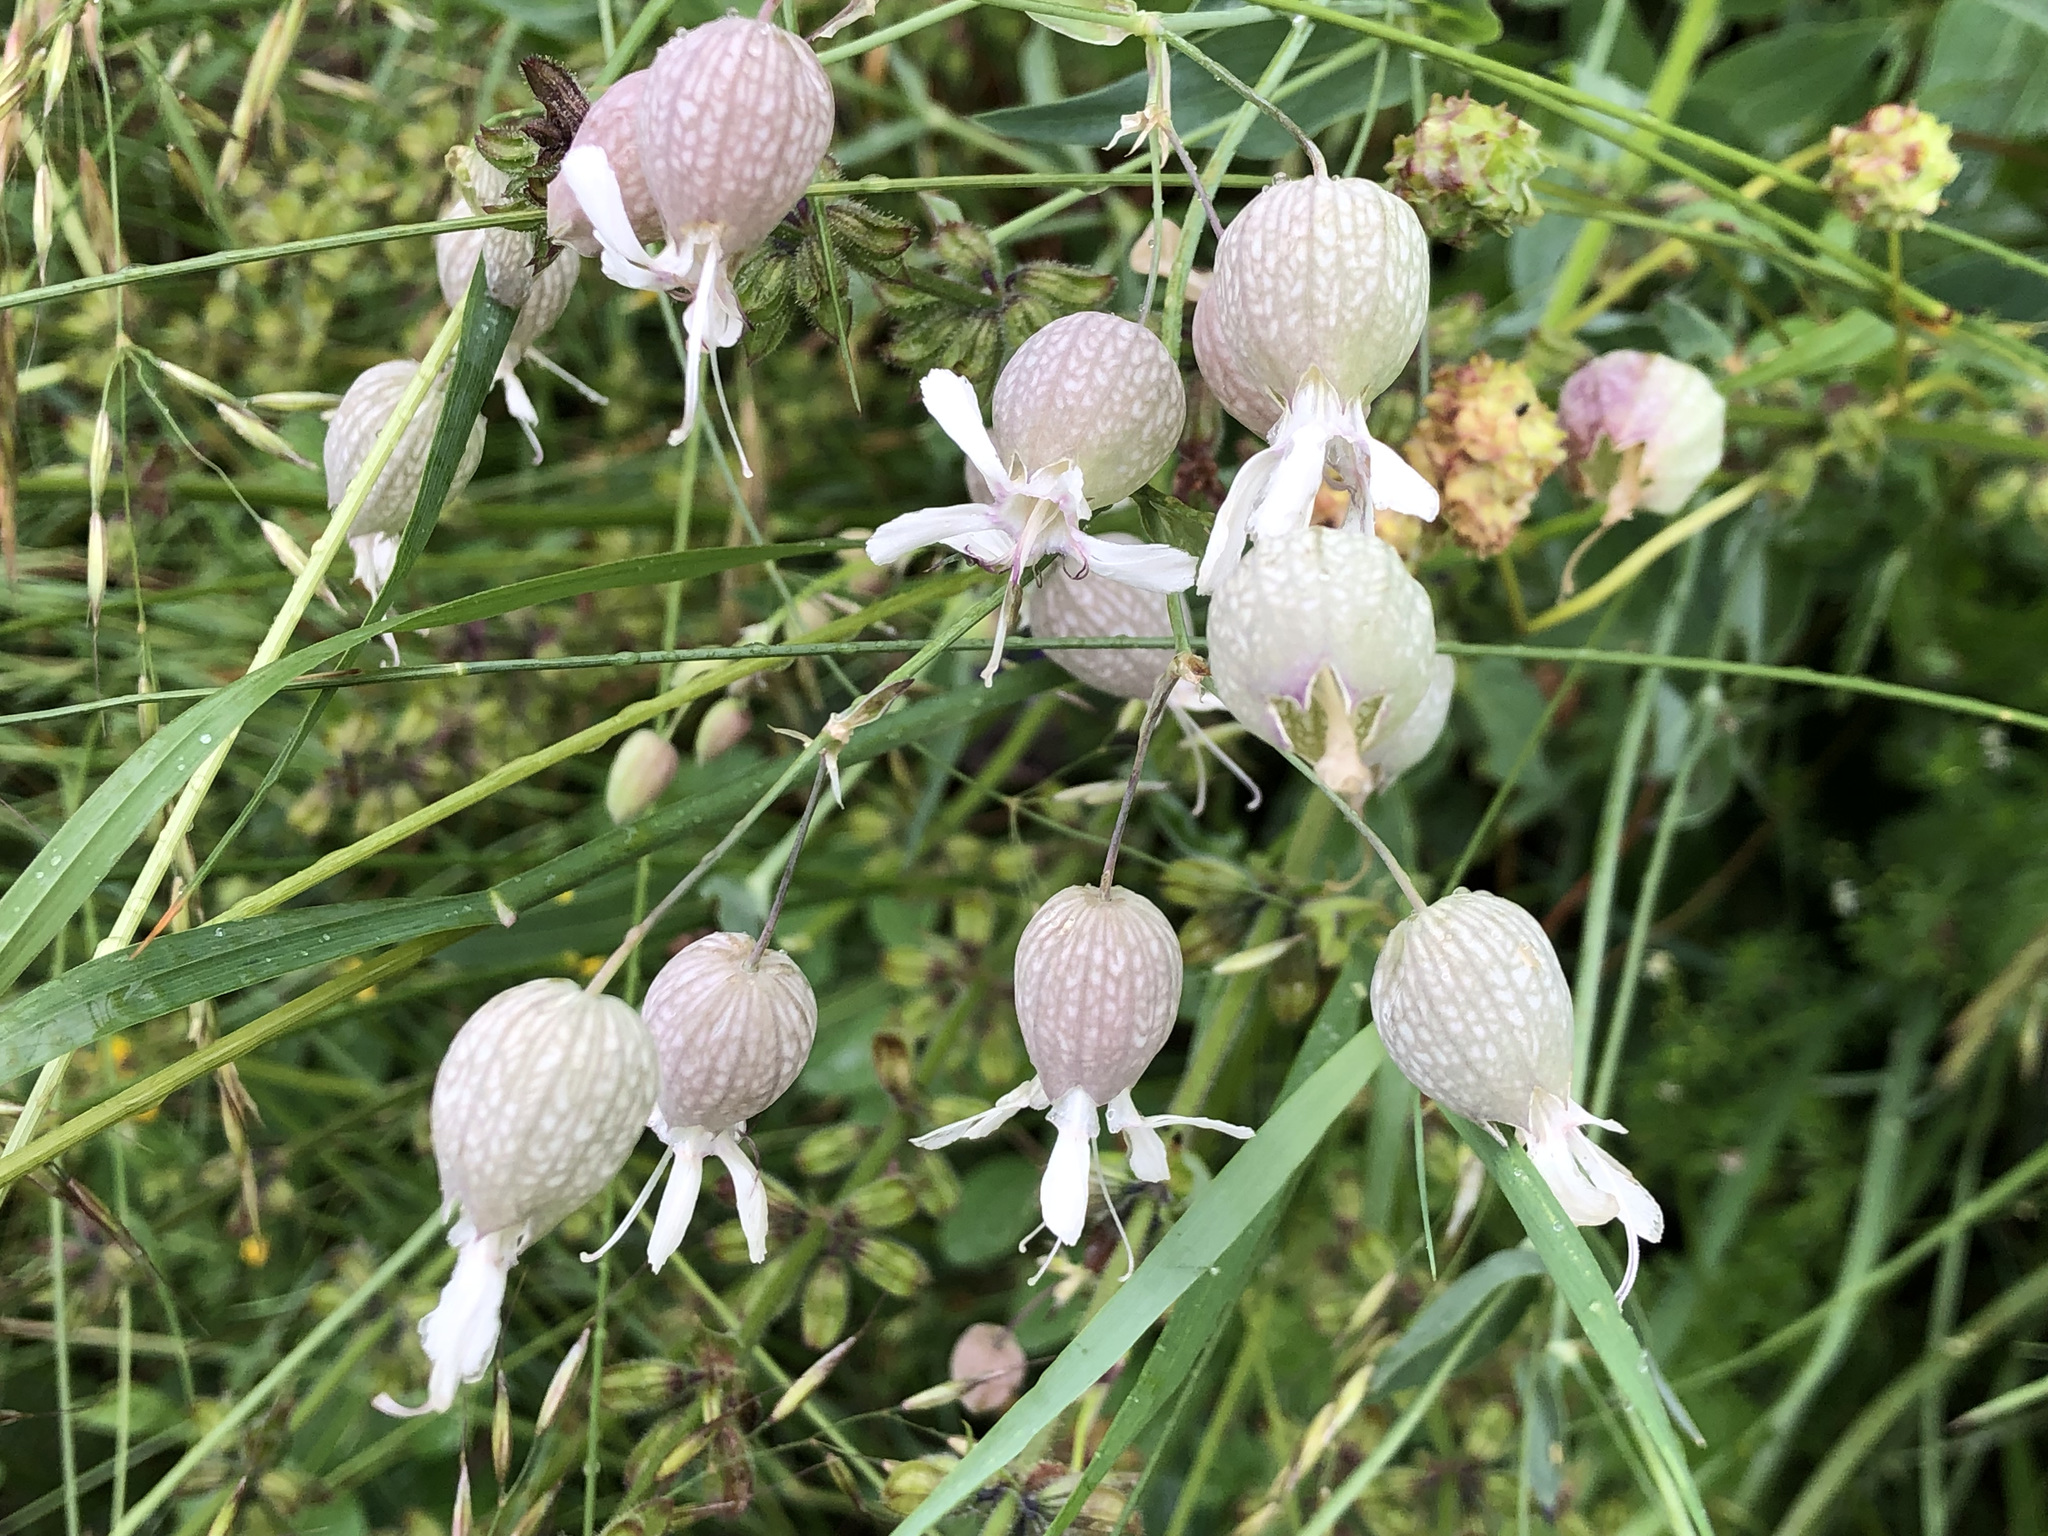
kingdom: Plantae
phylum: Tracheophyta
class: Magnoliopsida
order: Caryophyllales
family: Caryophyllaceae
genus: Silene
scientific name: Silene vulgaris
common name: Bladder campion
